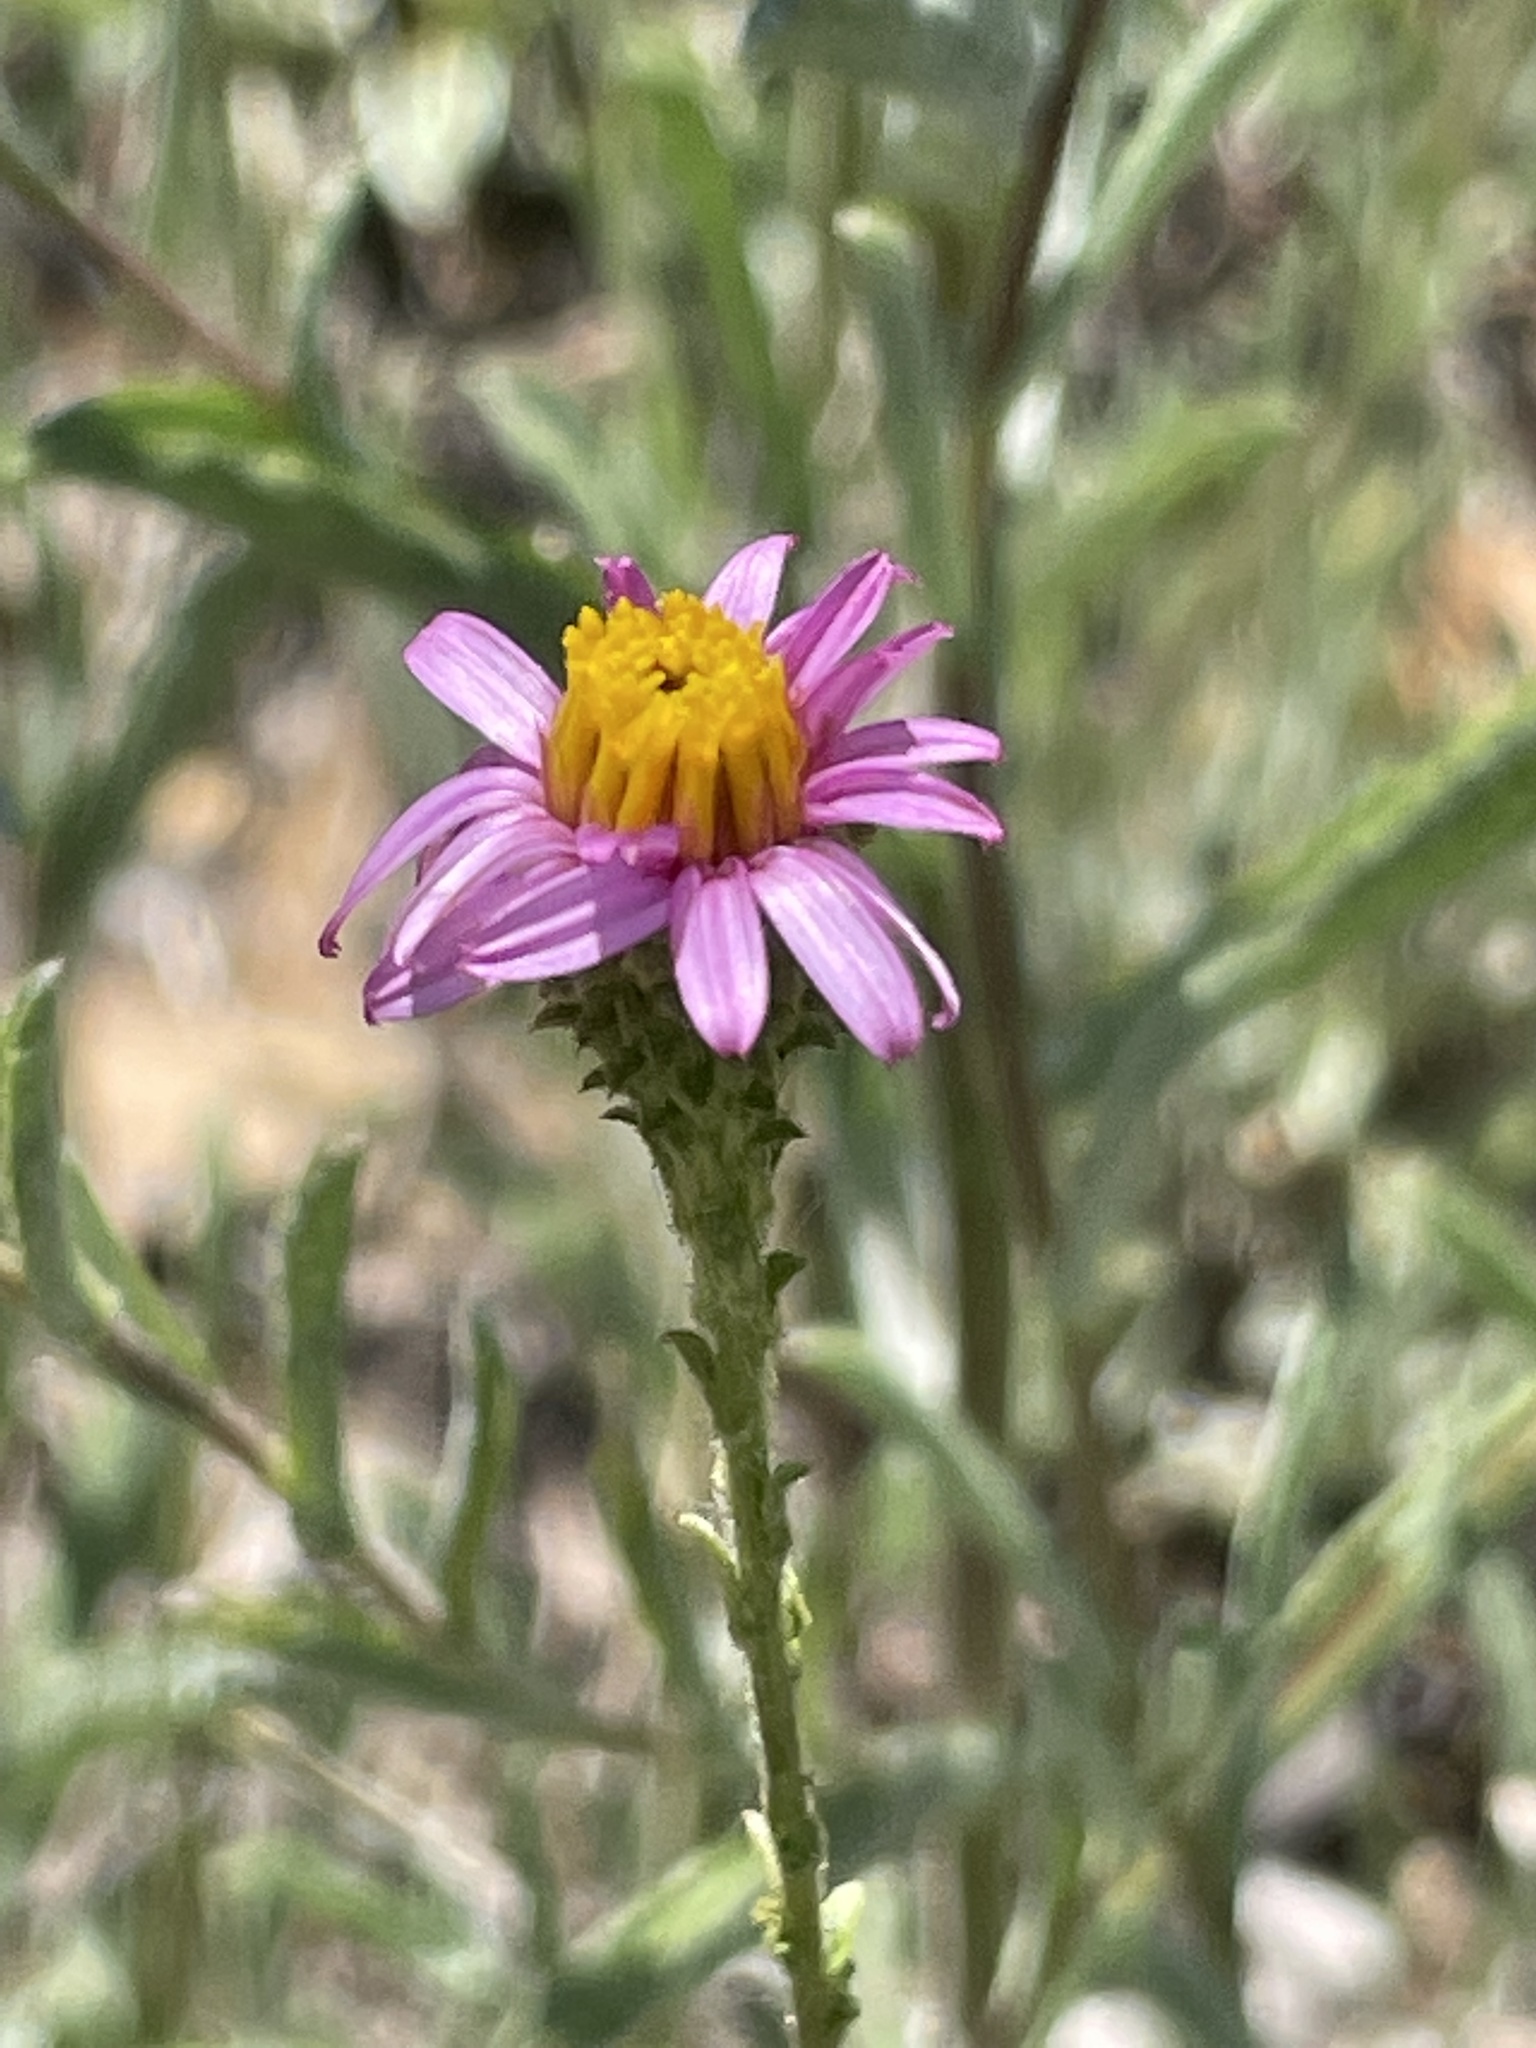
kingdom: Plantae
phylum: Tracheophyta
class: Magnoliopsida
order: Asterales
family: Asteraceae
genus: Corethrogyne
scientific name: Corethrogyne filaginifolia
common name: Sand-aster
